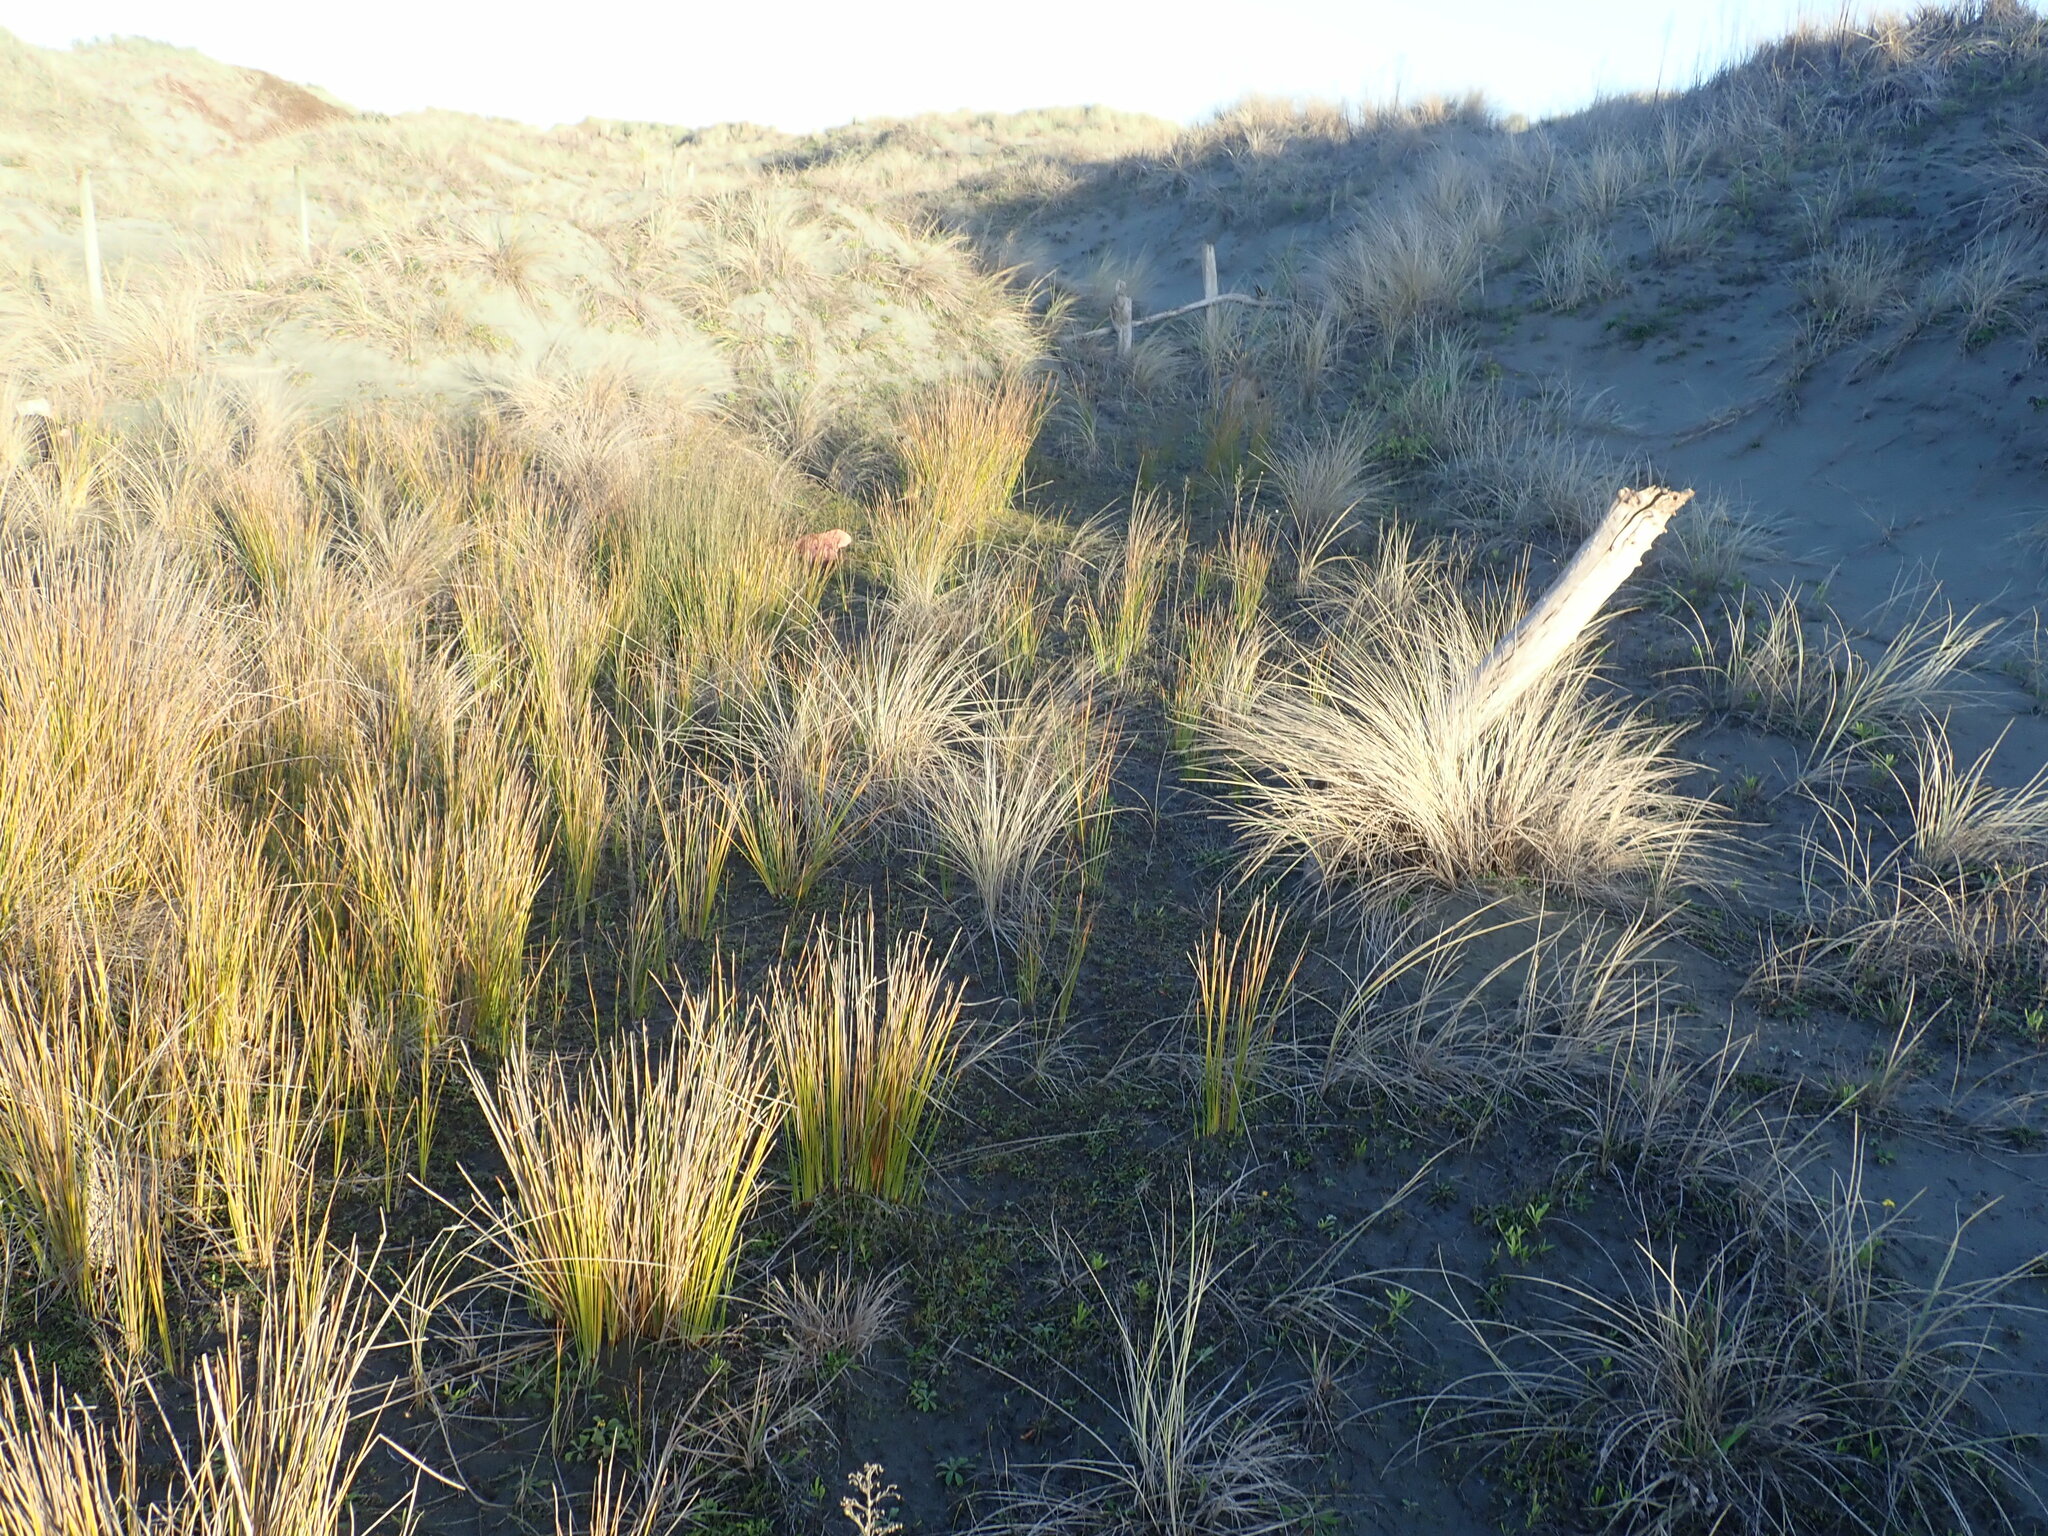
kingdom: Plantae
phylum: Tracheophyta
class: Liliopsida
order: Poales
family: Cyperaceae
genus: Ficinia
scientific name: Ficinia nodosa
